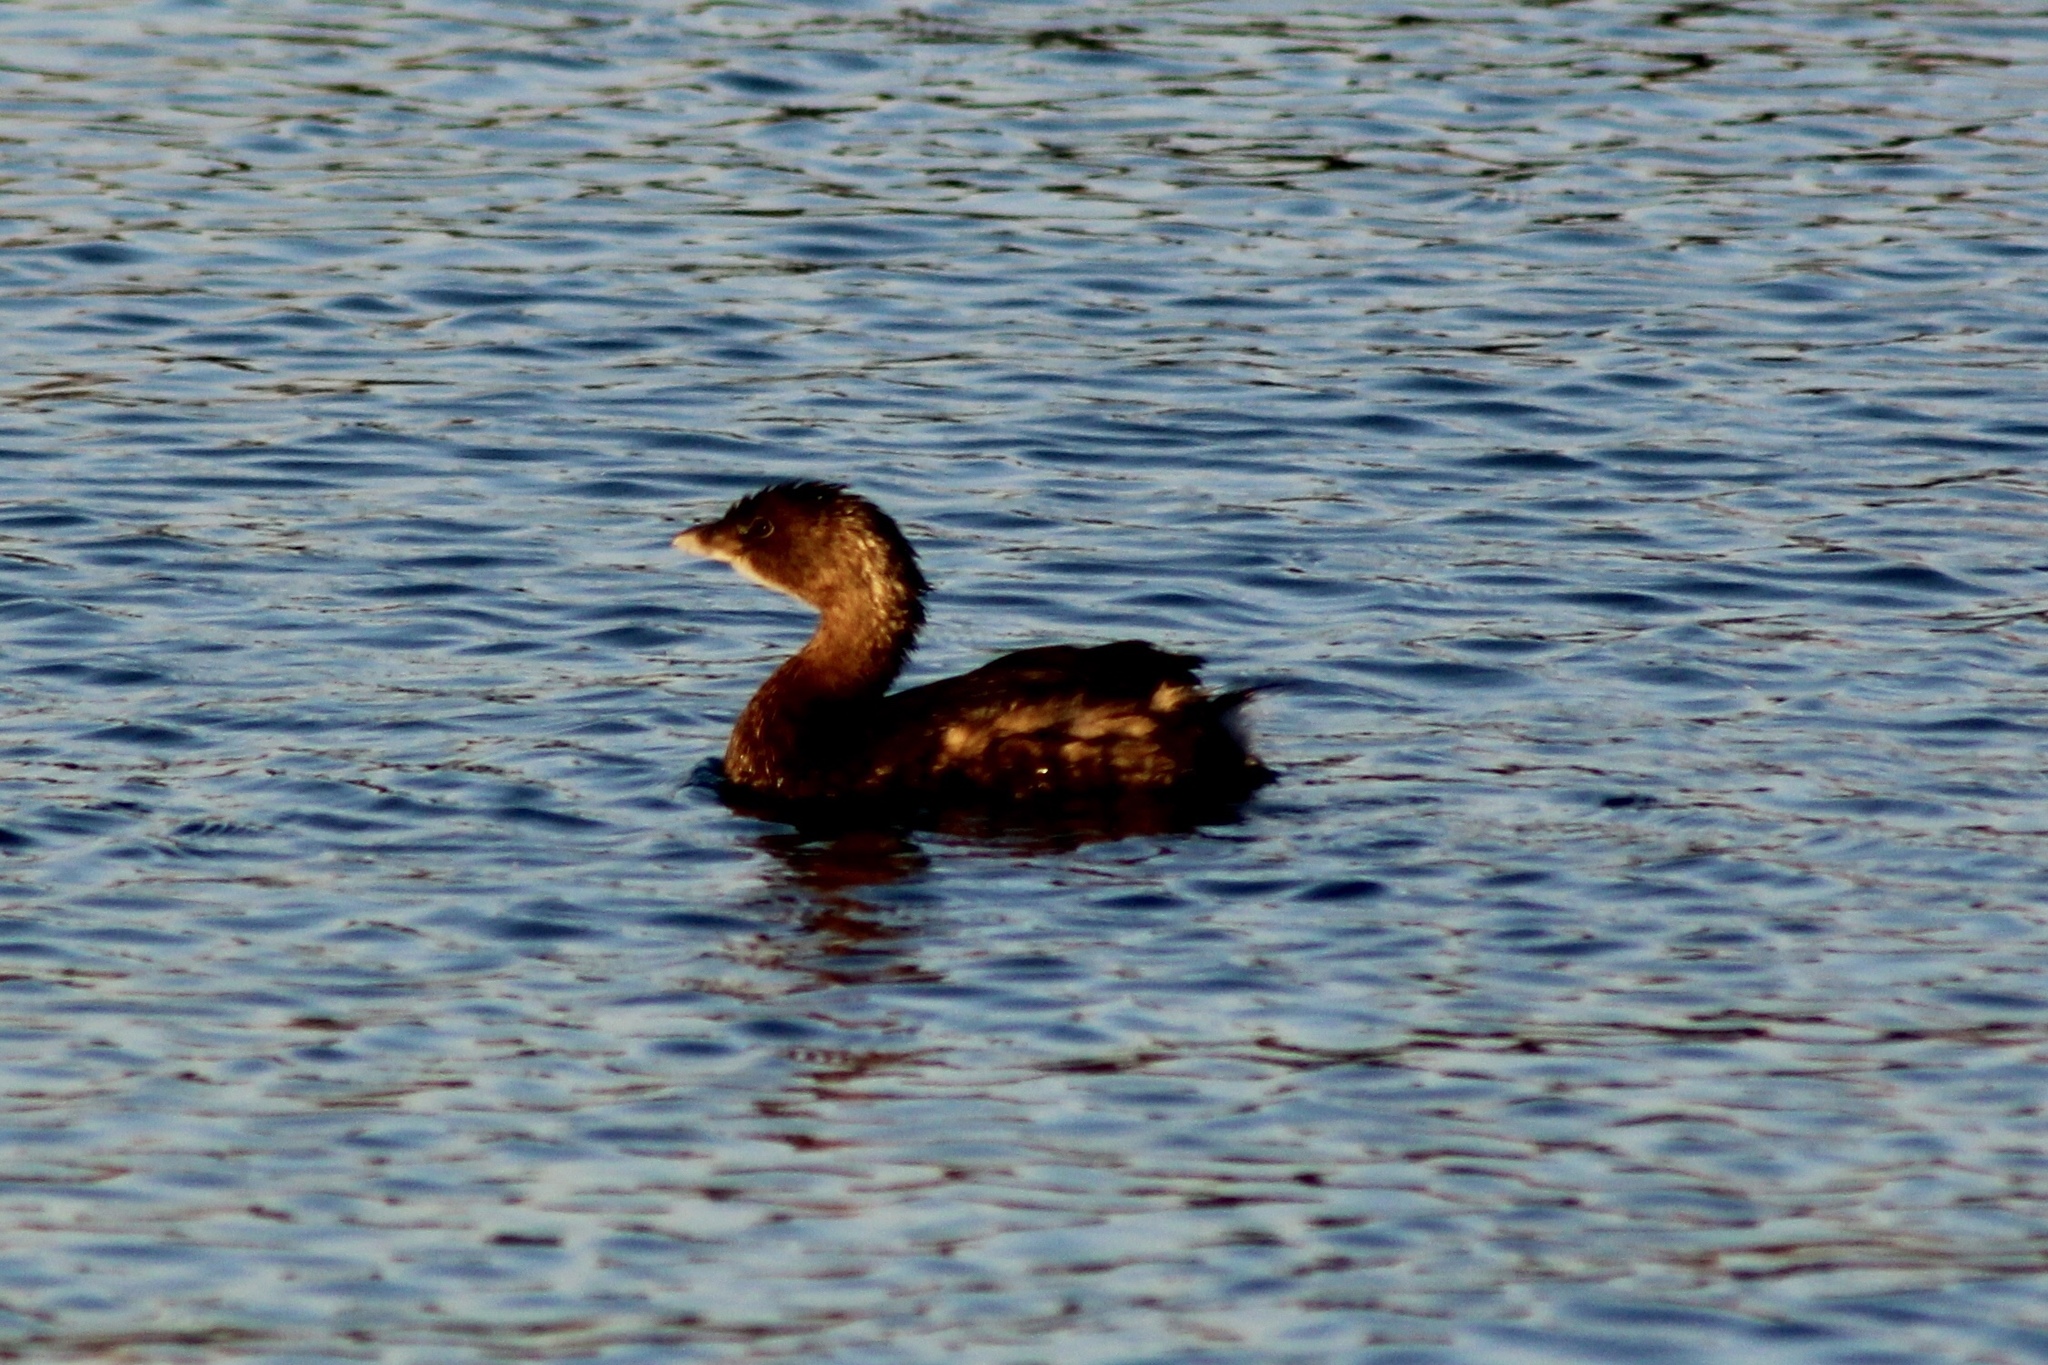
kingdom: Animalia
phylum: Chordata
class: Aves
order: Podicipediformes
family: Podicipedidae
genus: Podilymbus
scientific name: Podilymbus podiceps
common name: Pied-billed grebe
